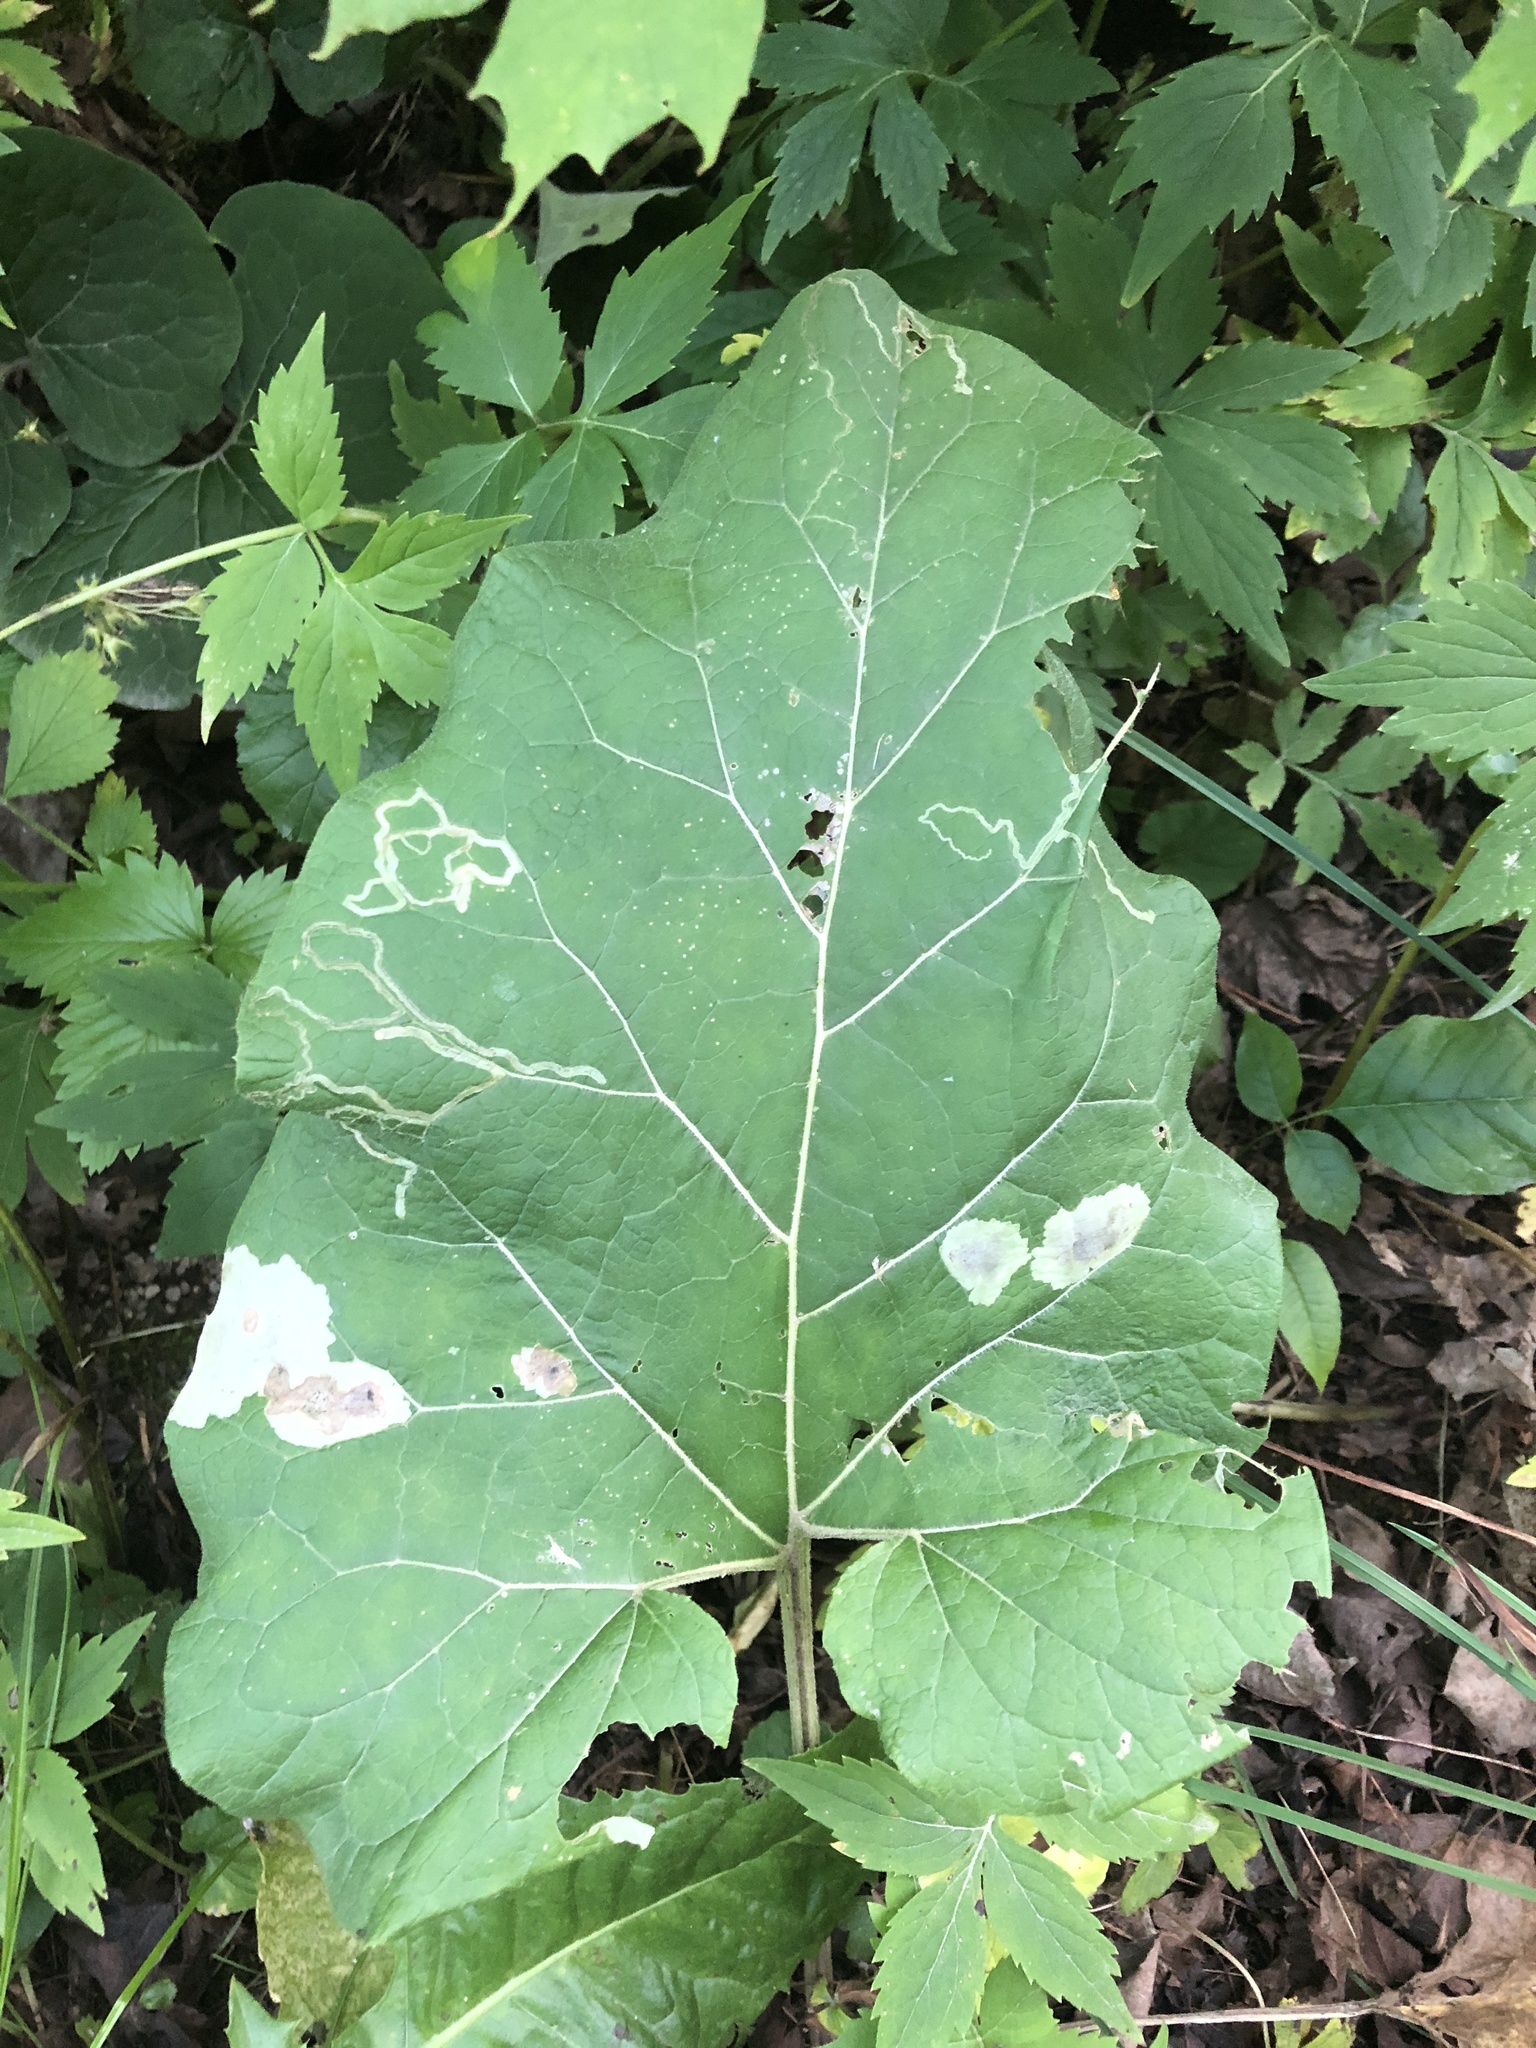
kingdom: Animalia
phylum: Arthropoda
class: Insecta
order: Diptera
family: Agromyzidae
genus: Calycomyza
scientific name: Calycomyza flavinotum
